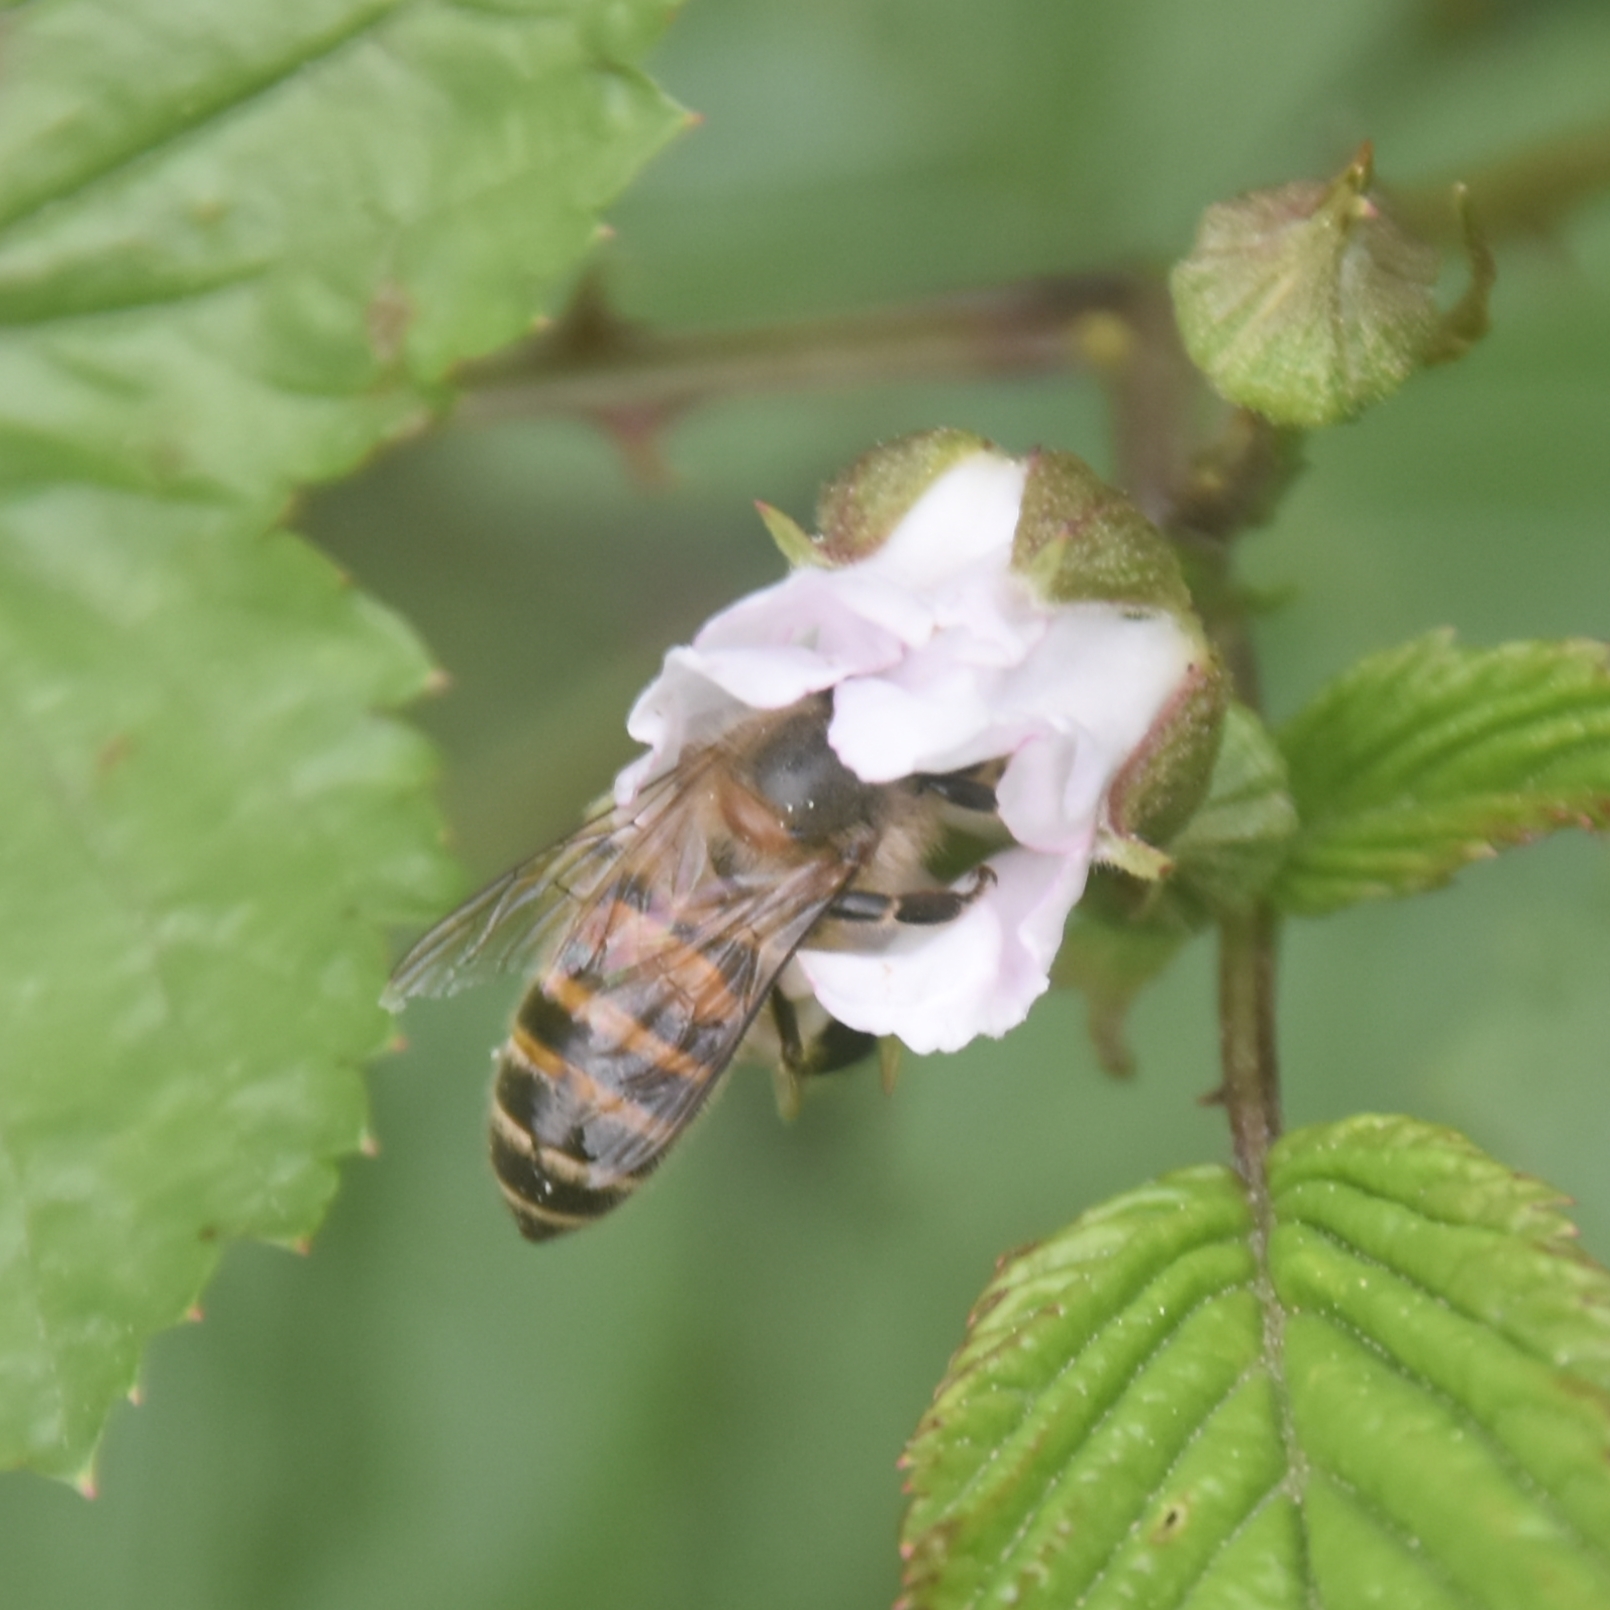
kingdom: Animalia
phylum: Arthropoda
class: Insecta
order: Hymenoptera
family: Apidae
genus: Apis
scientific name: Apis cerana
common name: Honey bee
